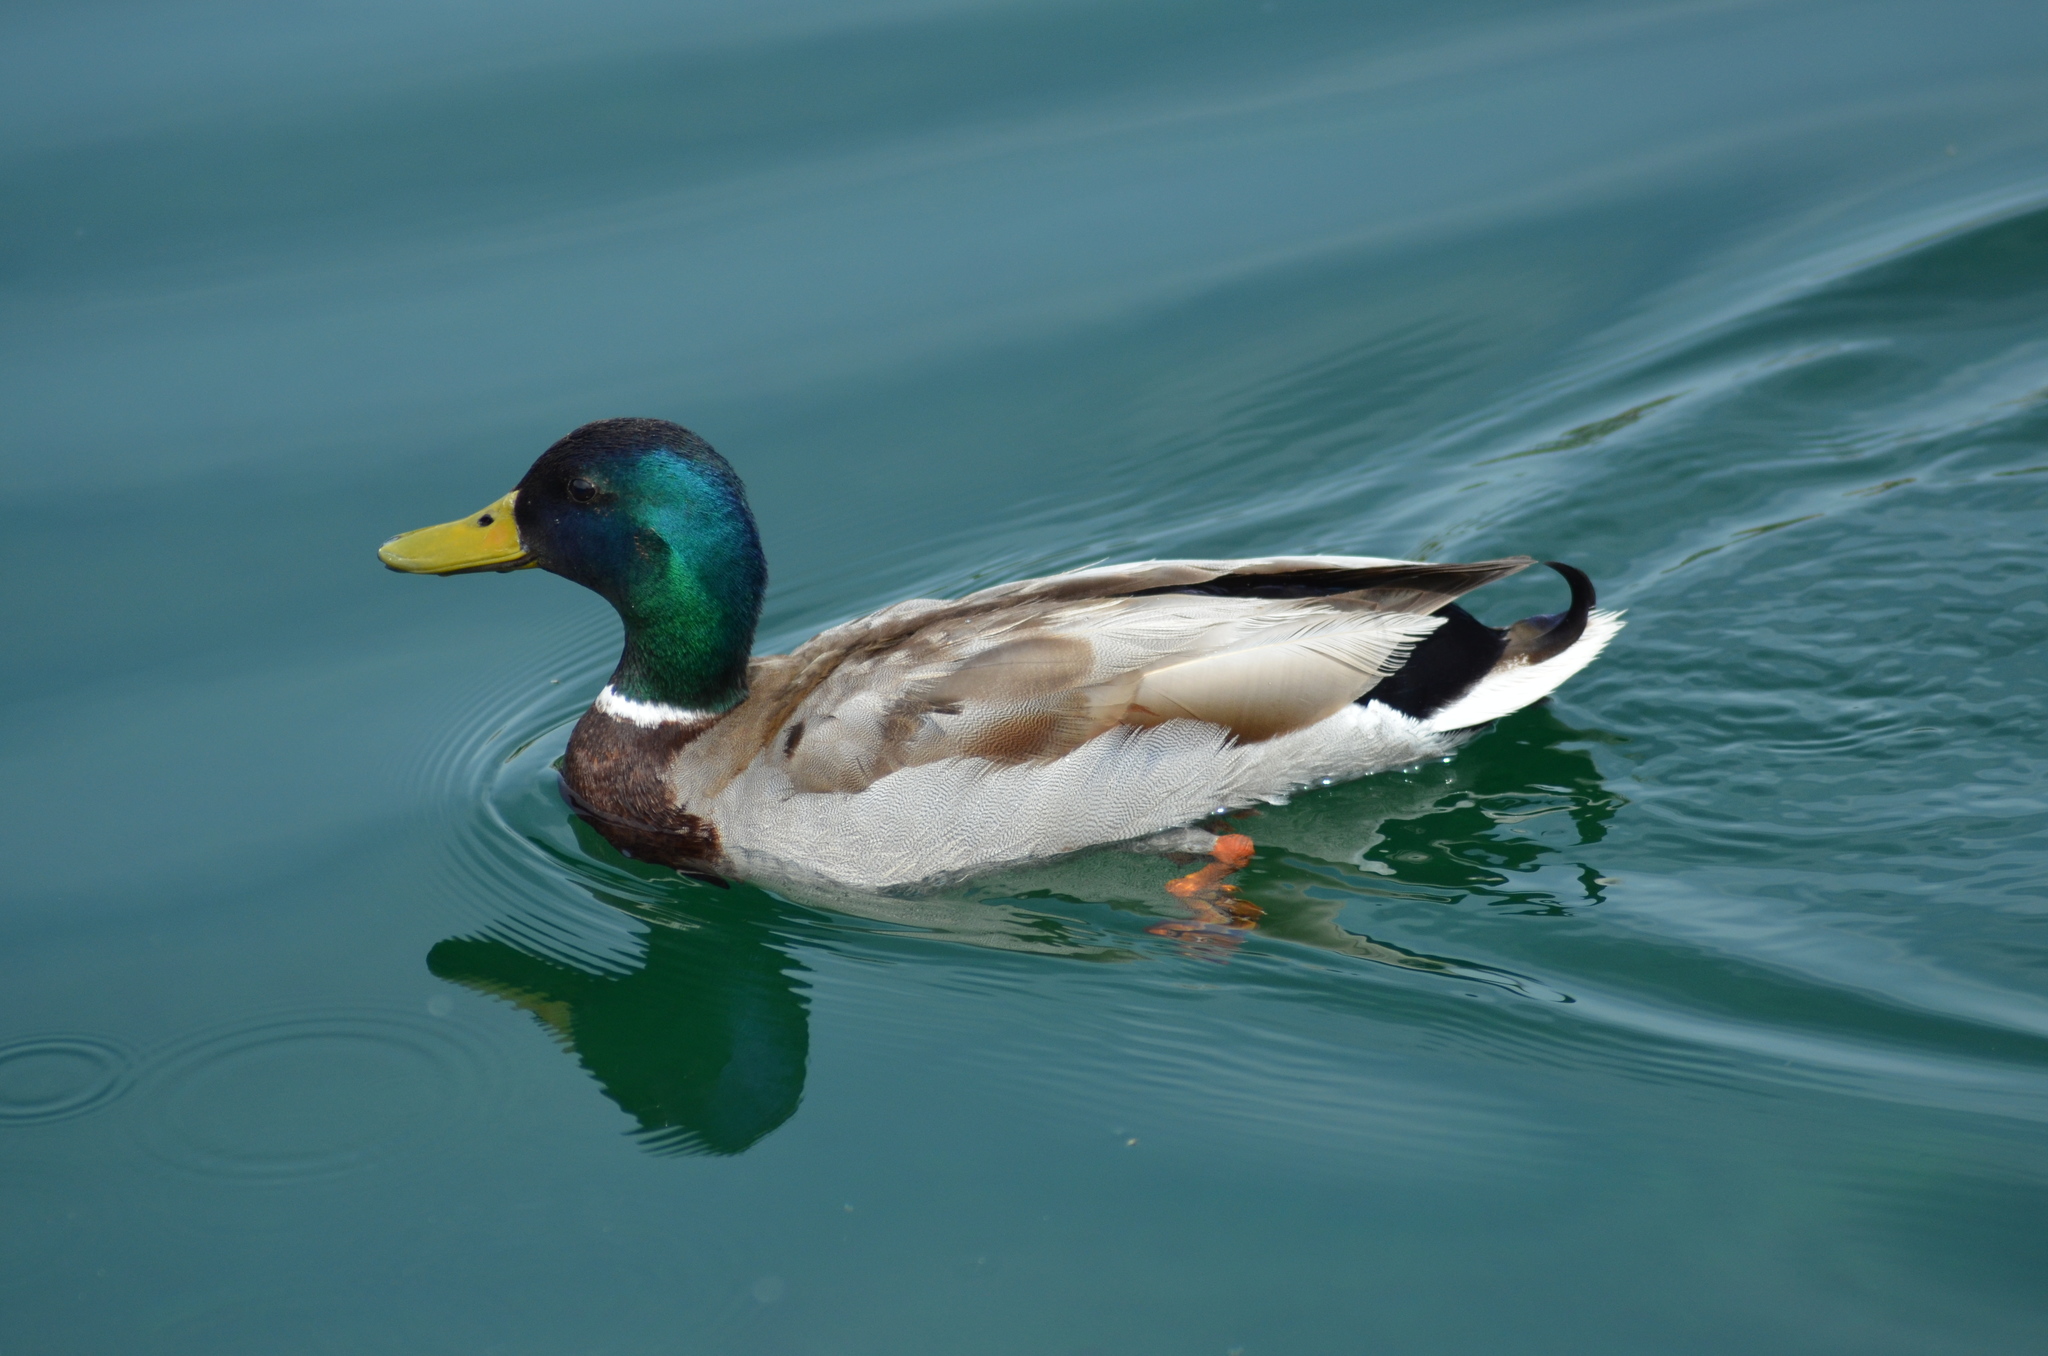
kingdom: Animalia
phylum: Chordata
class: Aves
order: Anseriformes
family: Anatidae
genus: Anas
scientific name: Anas platyrhynchos
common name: Mallard
